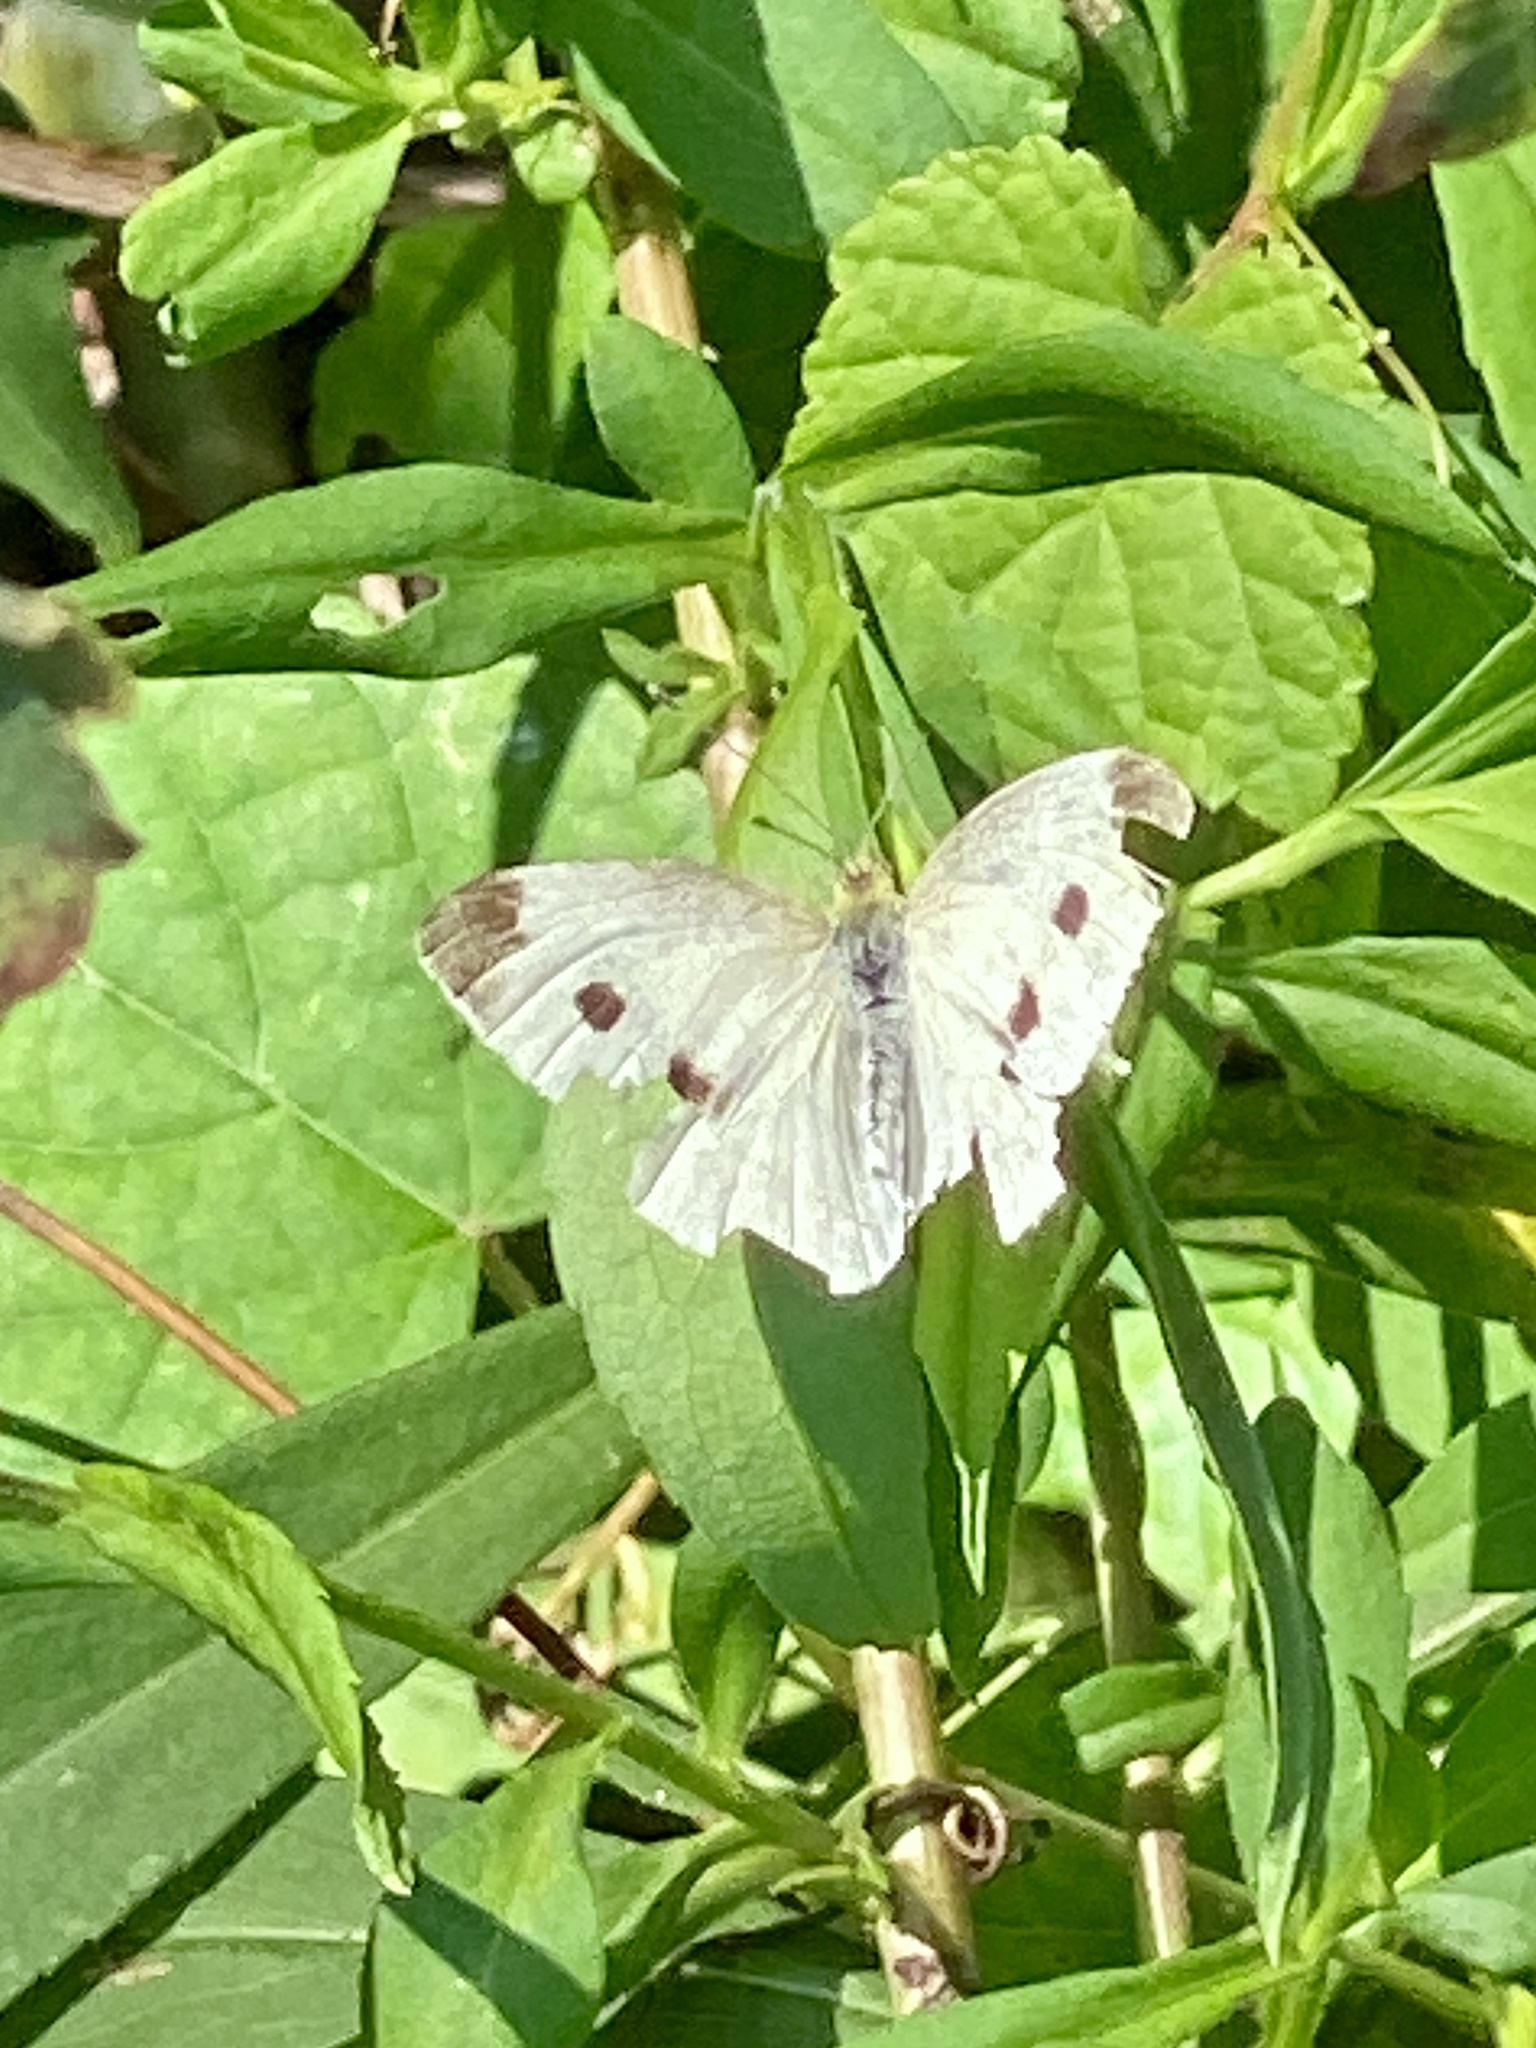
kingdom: Animalia
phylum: Arthropoda
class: Insecta
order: Lepidoptera
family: Pieridae
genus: Pieris
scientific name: Pieris rapae
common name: Small white
